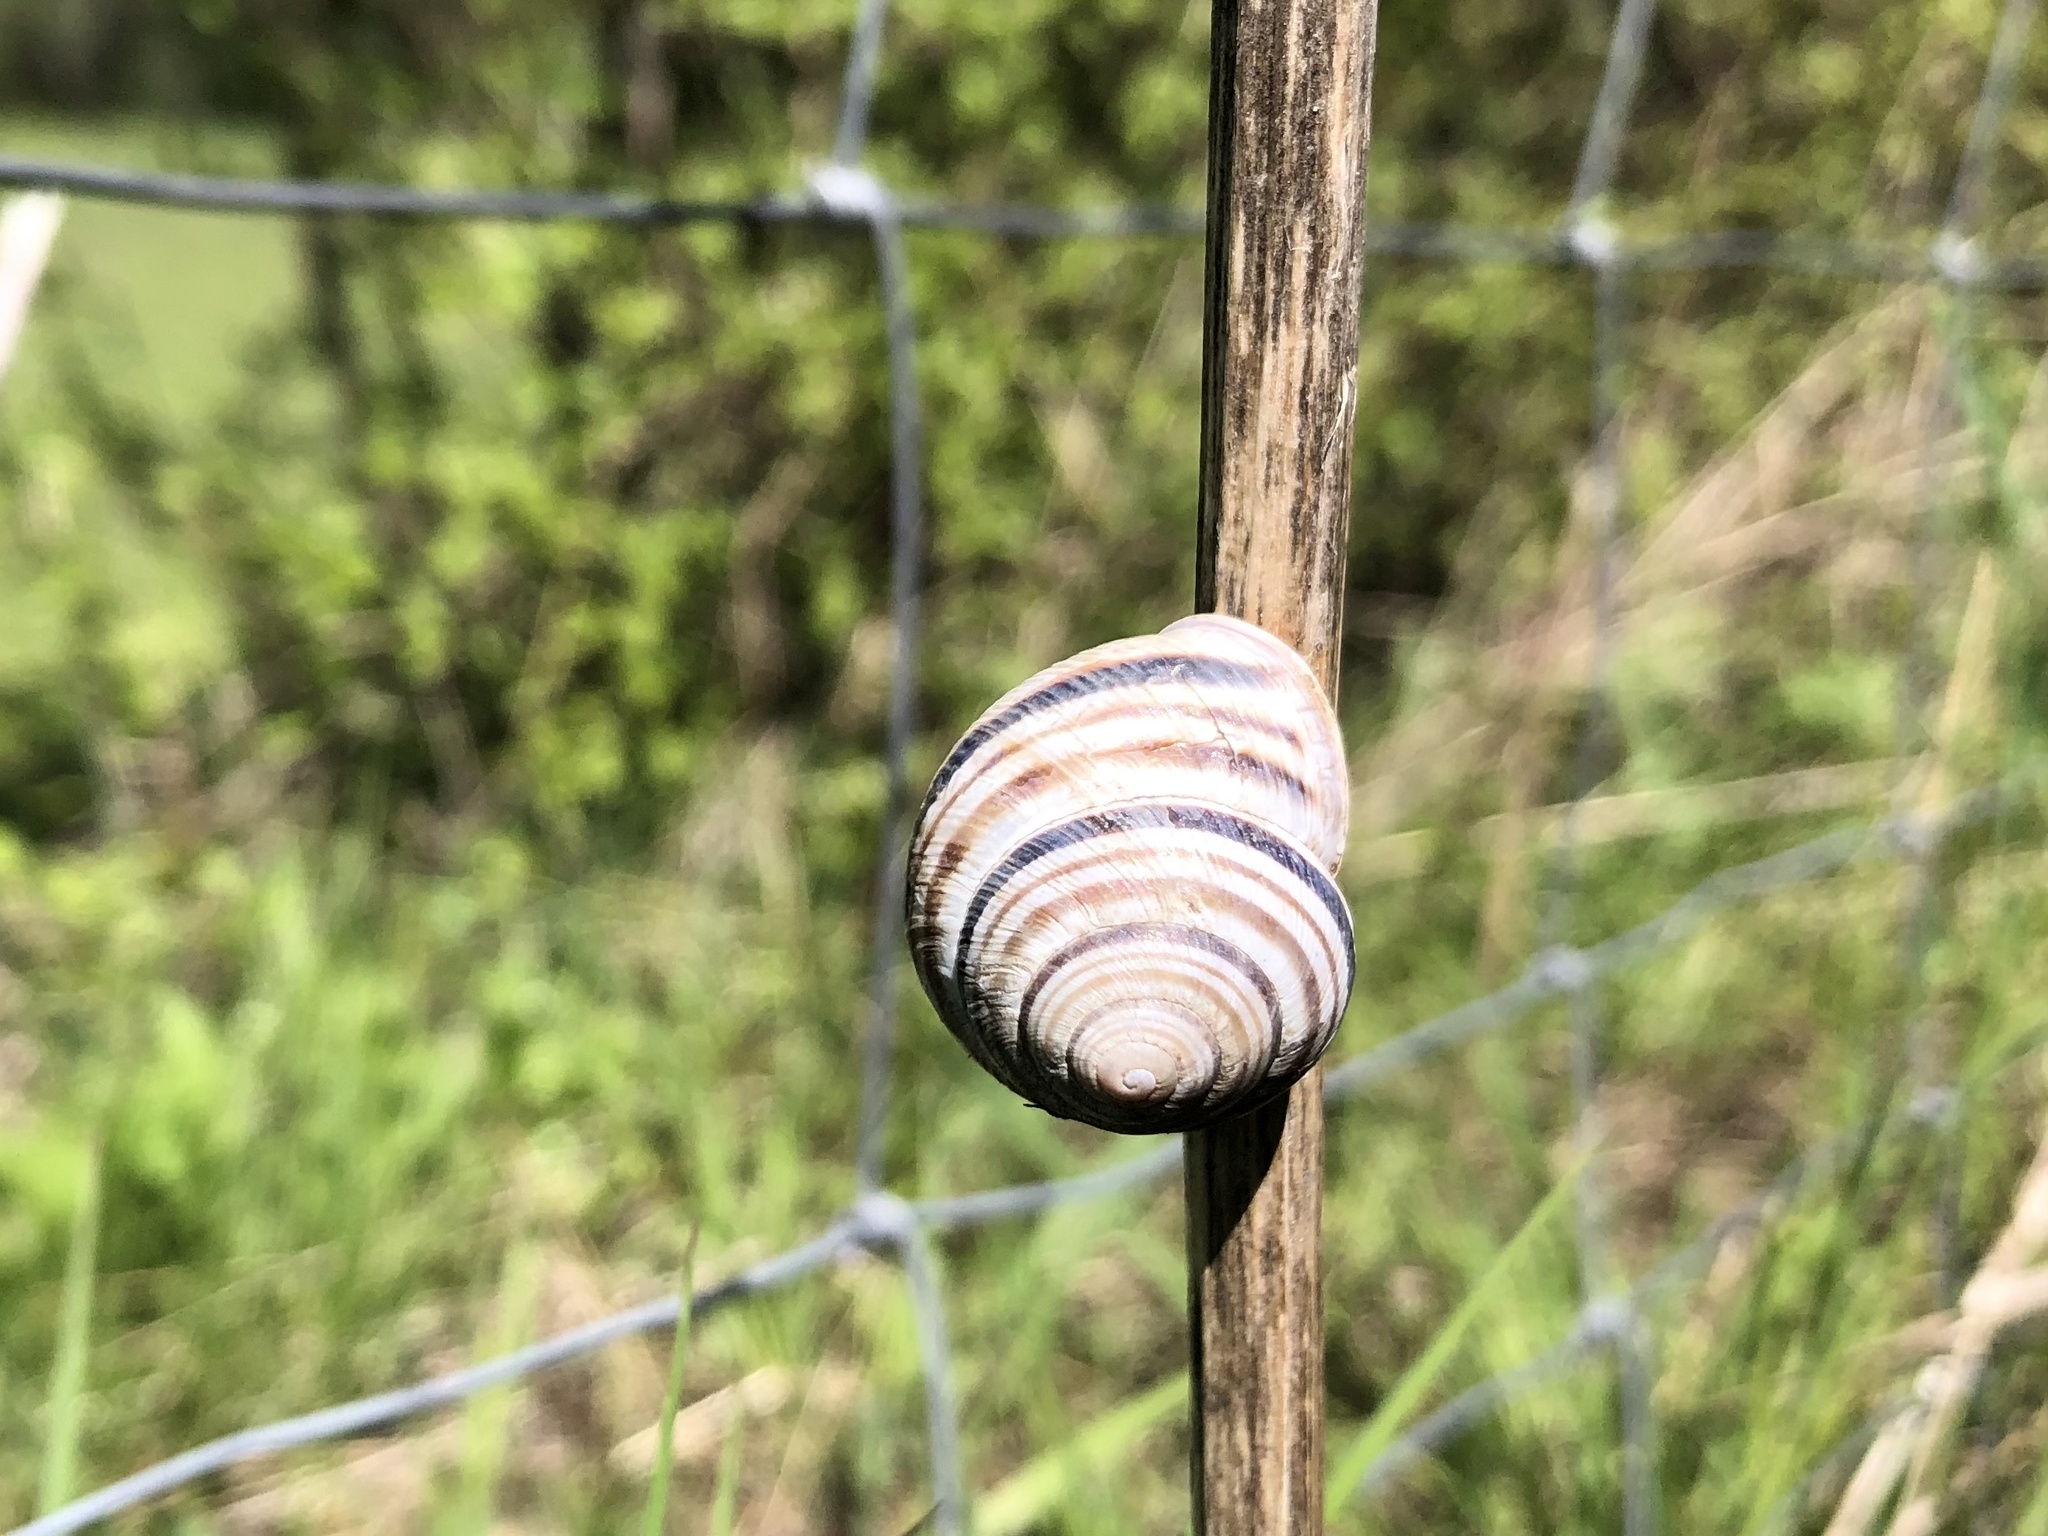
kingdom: Animalia
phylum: Mollusca
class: Gastropoda
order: Stylommatophora
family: Helicidae
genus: Caucasotachea
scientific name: Caucasotachea vindobonensis
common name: European helicid land snail
